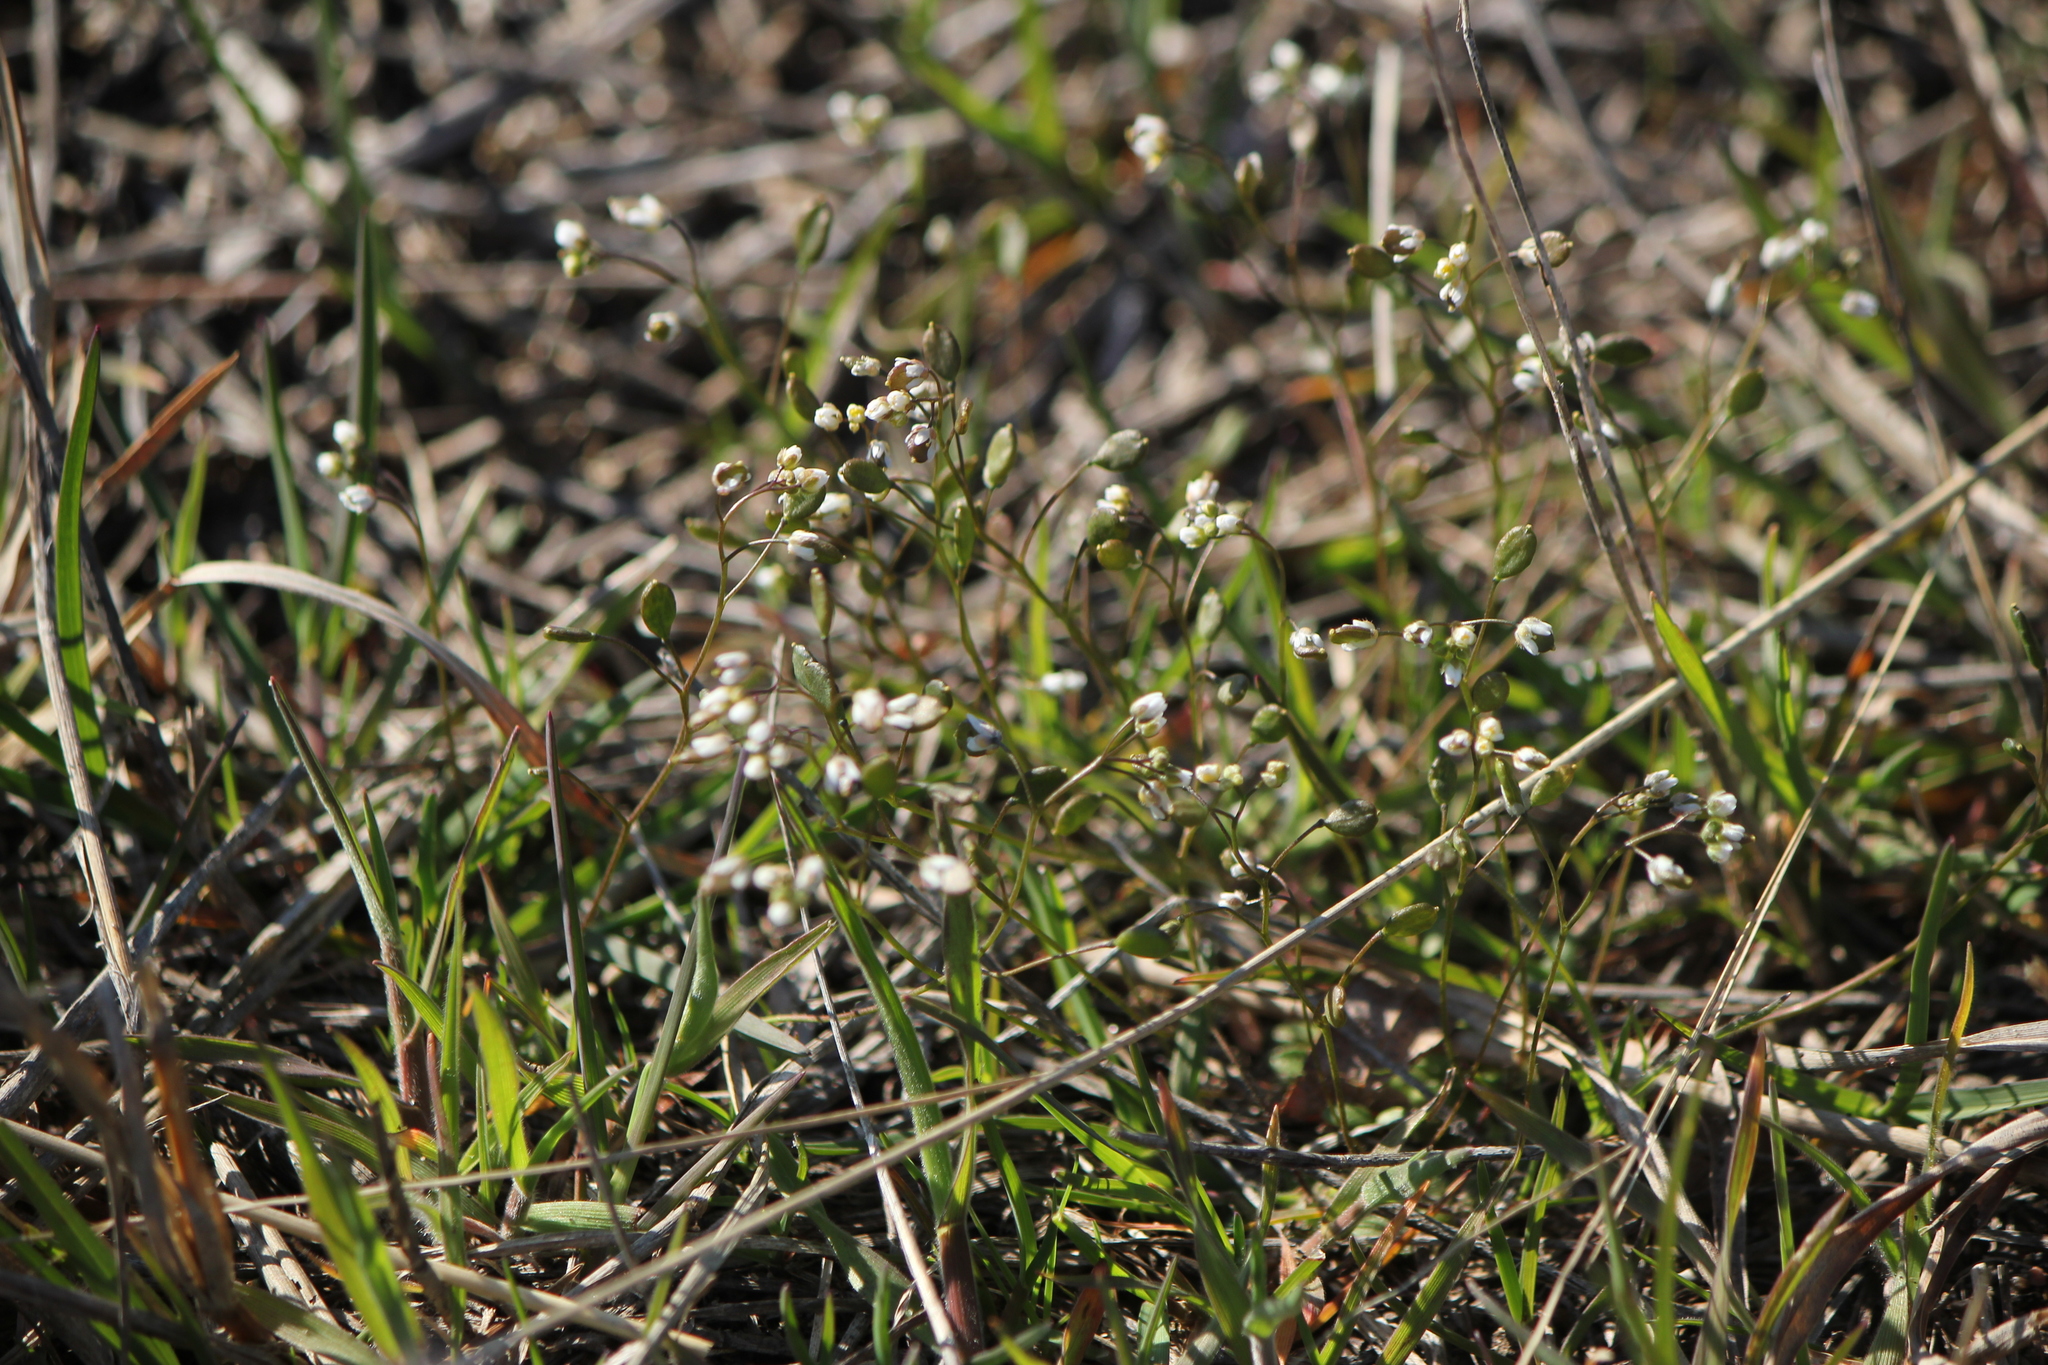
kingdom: Plantae
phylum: Tracheophyta
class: Magnoliopsida
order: Brassicales
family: Brassicaceae
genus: Draba
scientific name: Draba verna
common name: Spring draba
